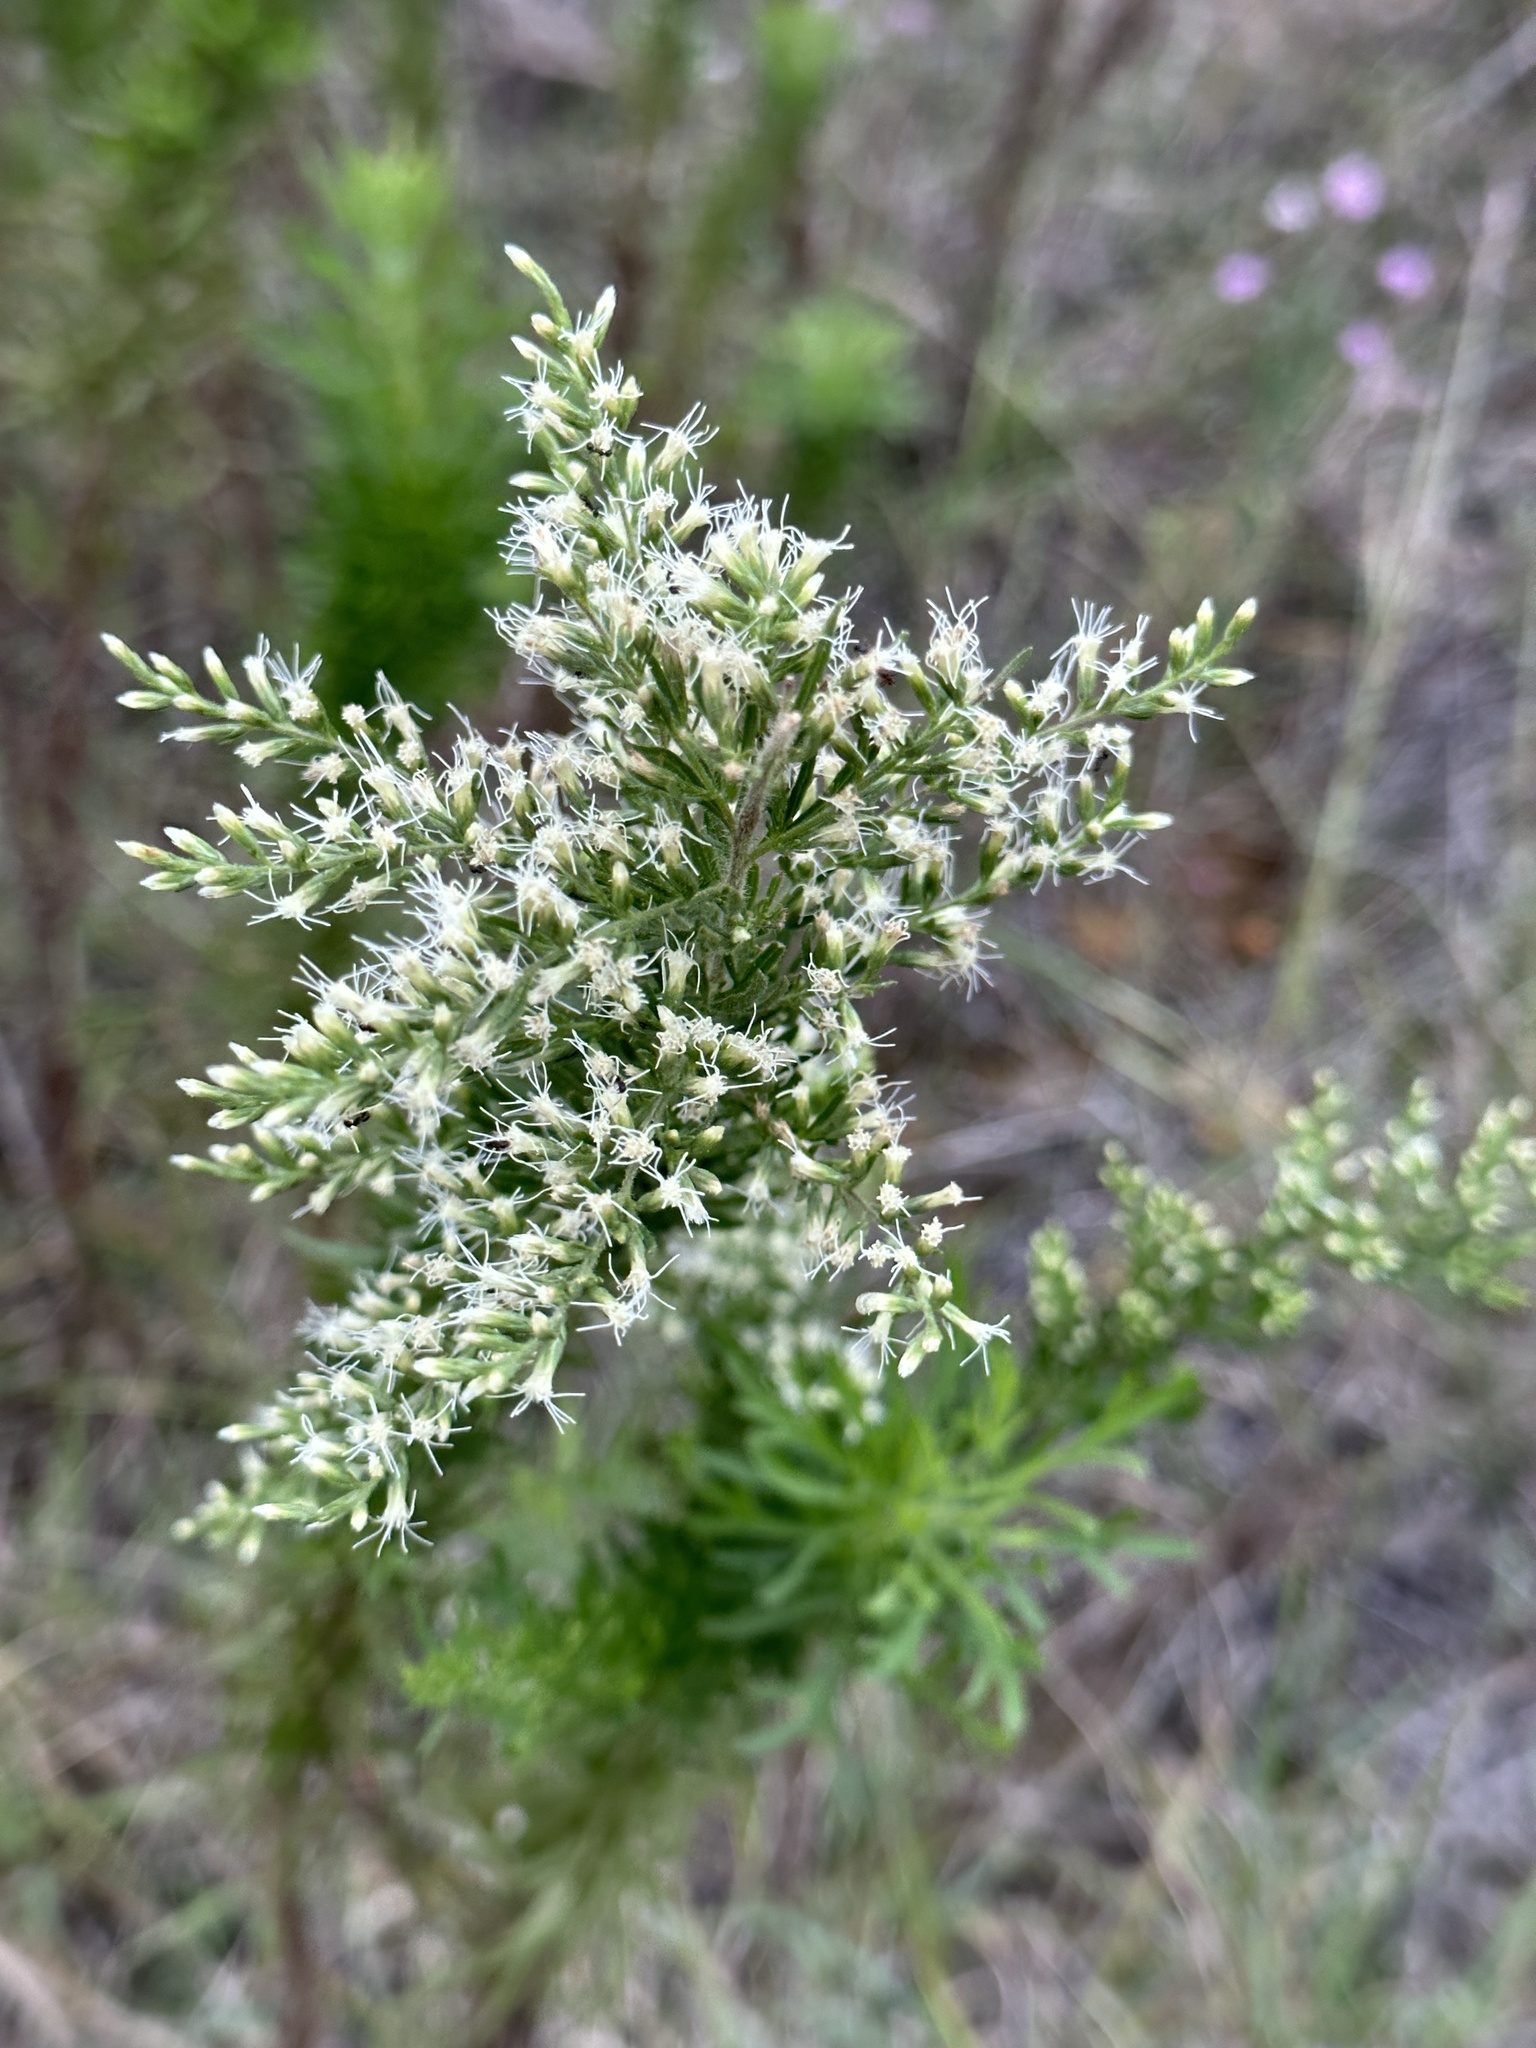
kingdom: Plantae
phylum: Tracheophyta
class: Magnoliopsida
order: Asterales
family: Asteraceae
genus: Eupatorium
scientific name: Eupatorium compositifolium
